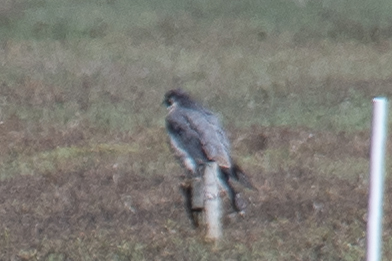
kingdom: Animalia
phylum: Chordata
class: Aves
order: Falconiformes
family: Falconidae
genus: Falco
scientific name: Falco peregrinus
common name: Peregrine falcon
